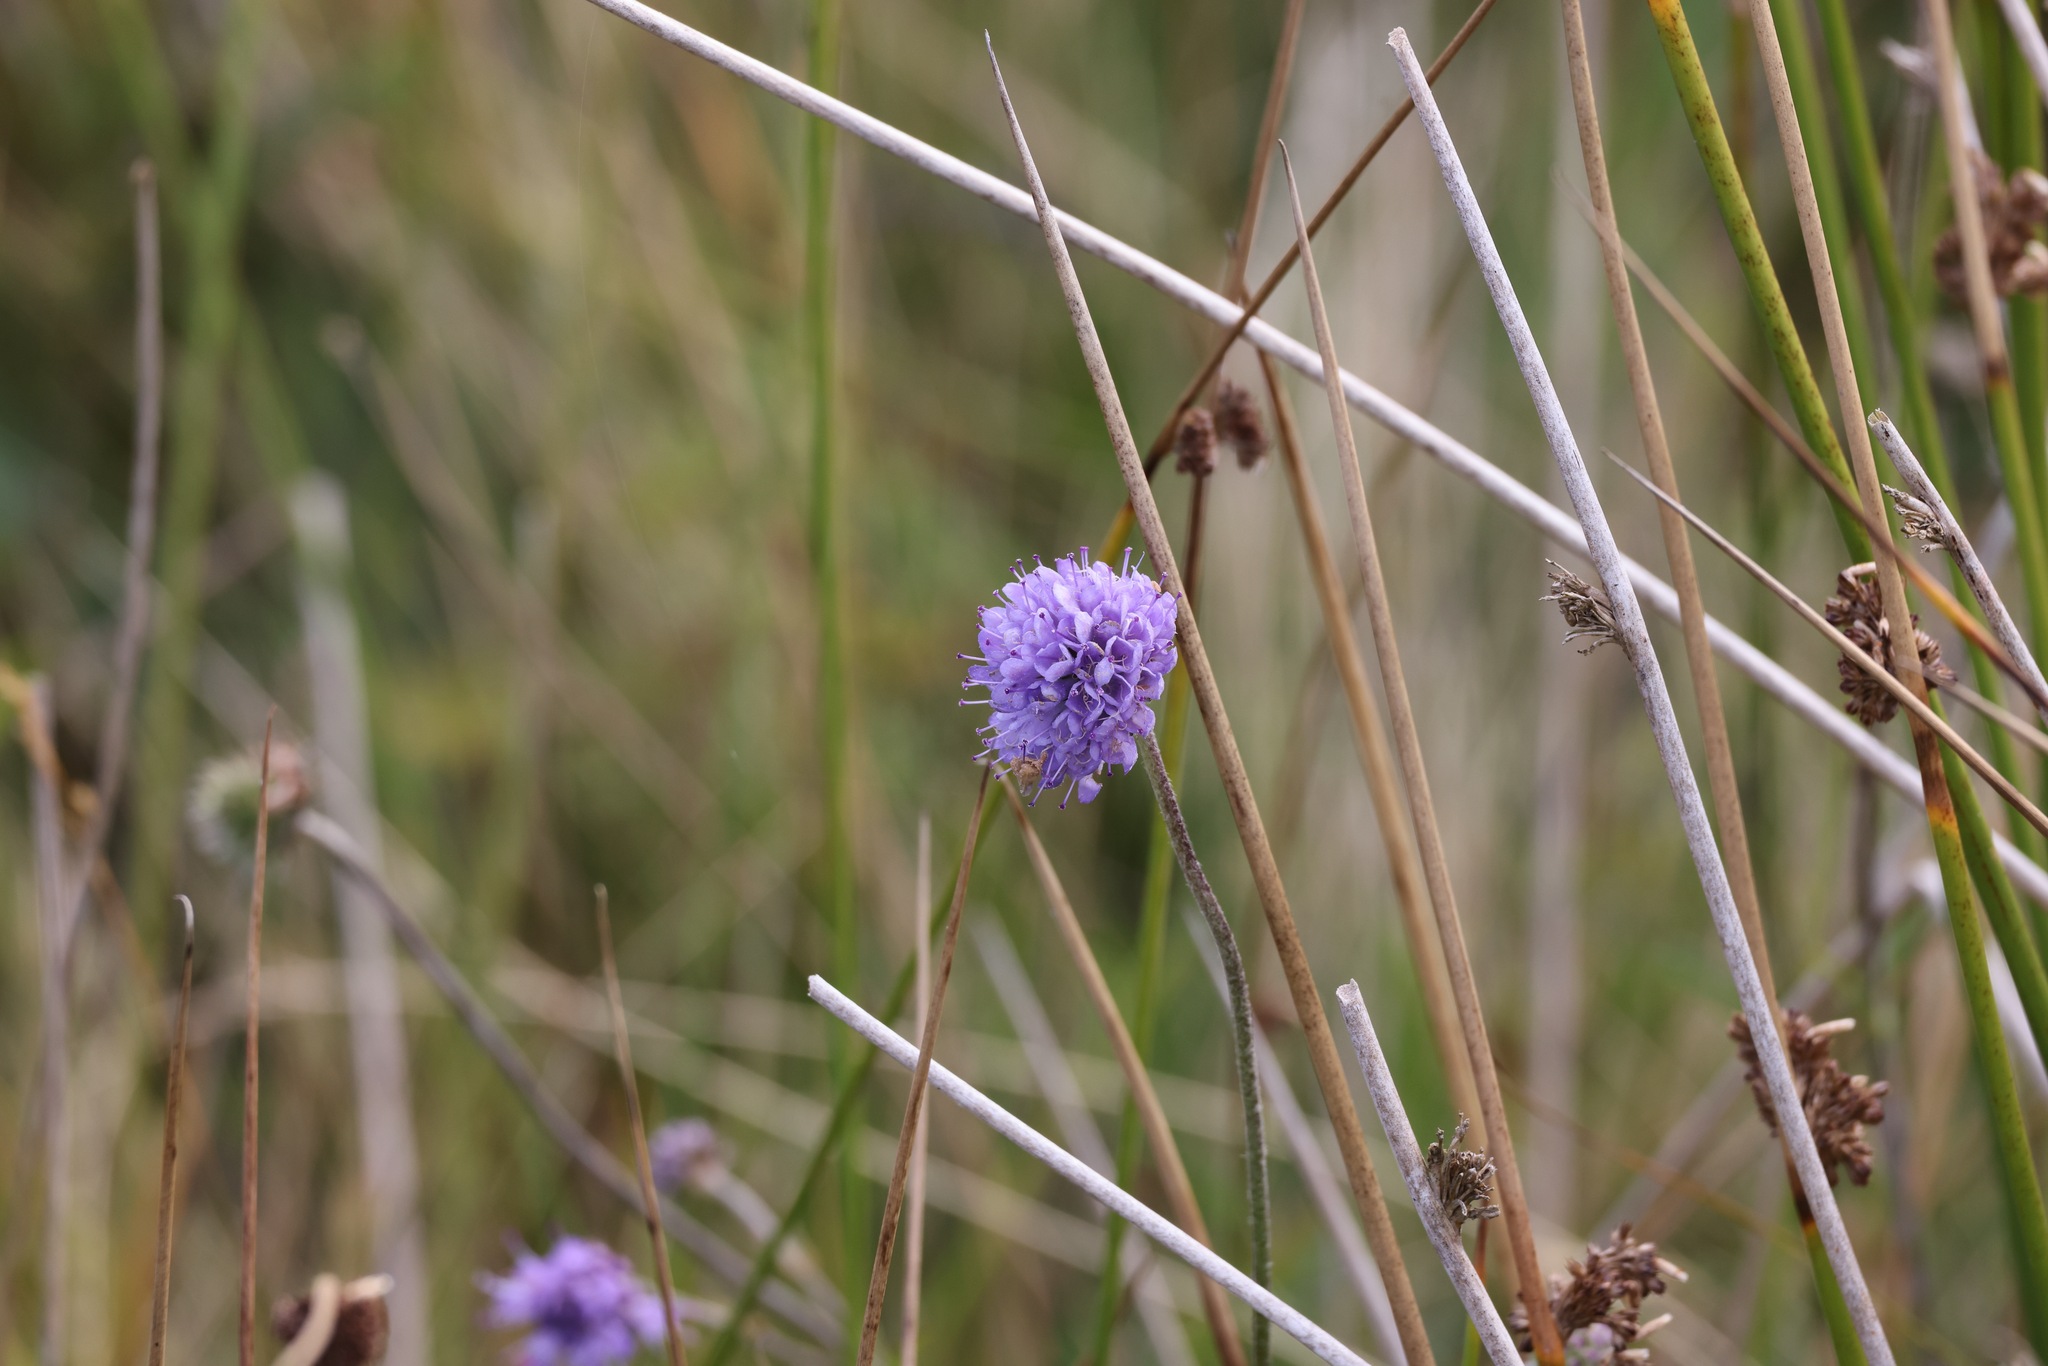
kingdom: Plantae
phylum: Tracheophyta
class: Magnoliopsida
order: Dipsacales
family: Caprifoliaceae
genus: Succisa
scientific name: Succisa pratensis
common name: Devil's-bit
